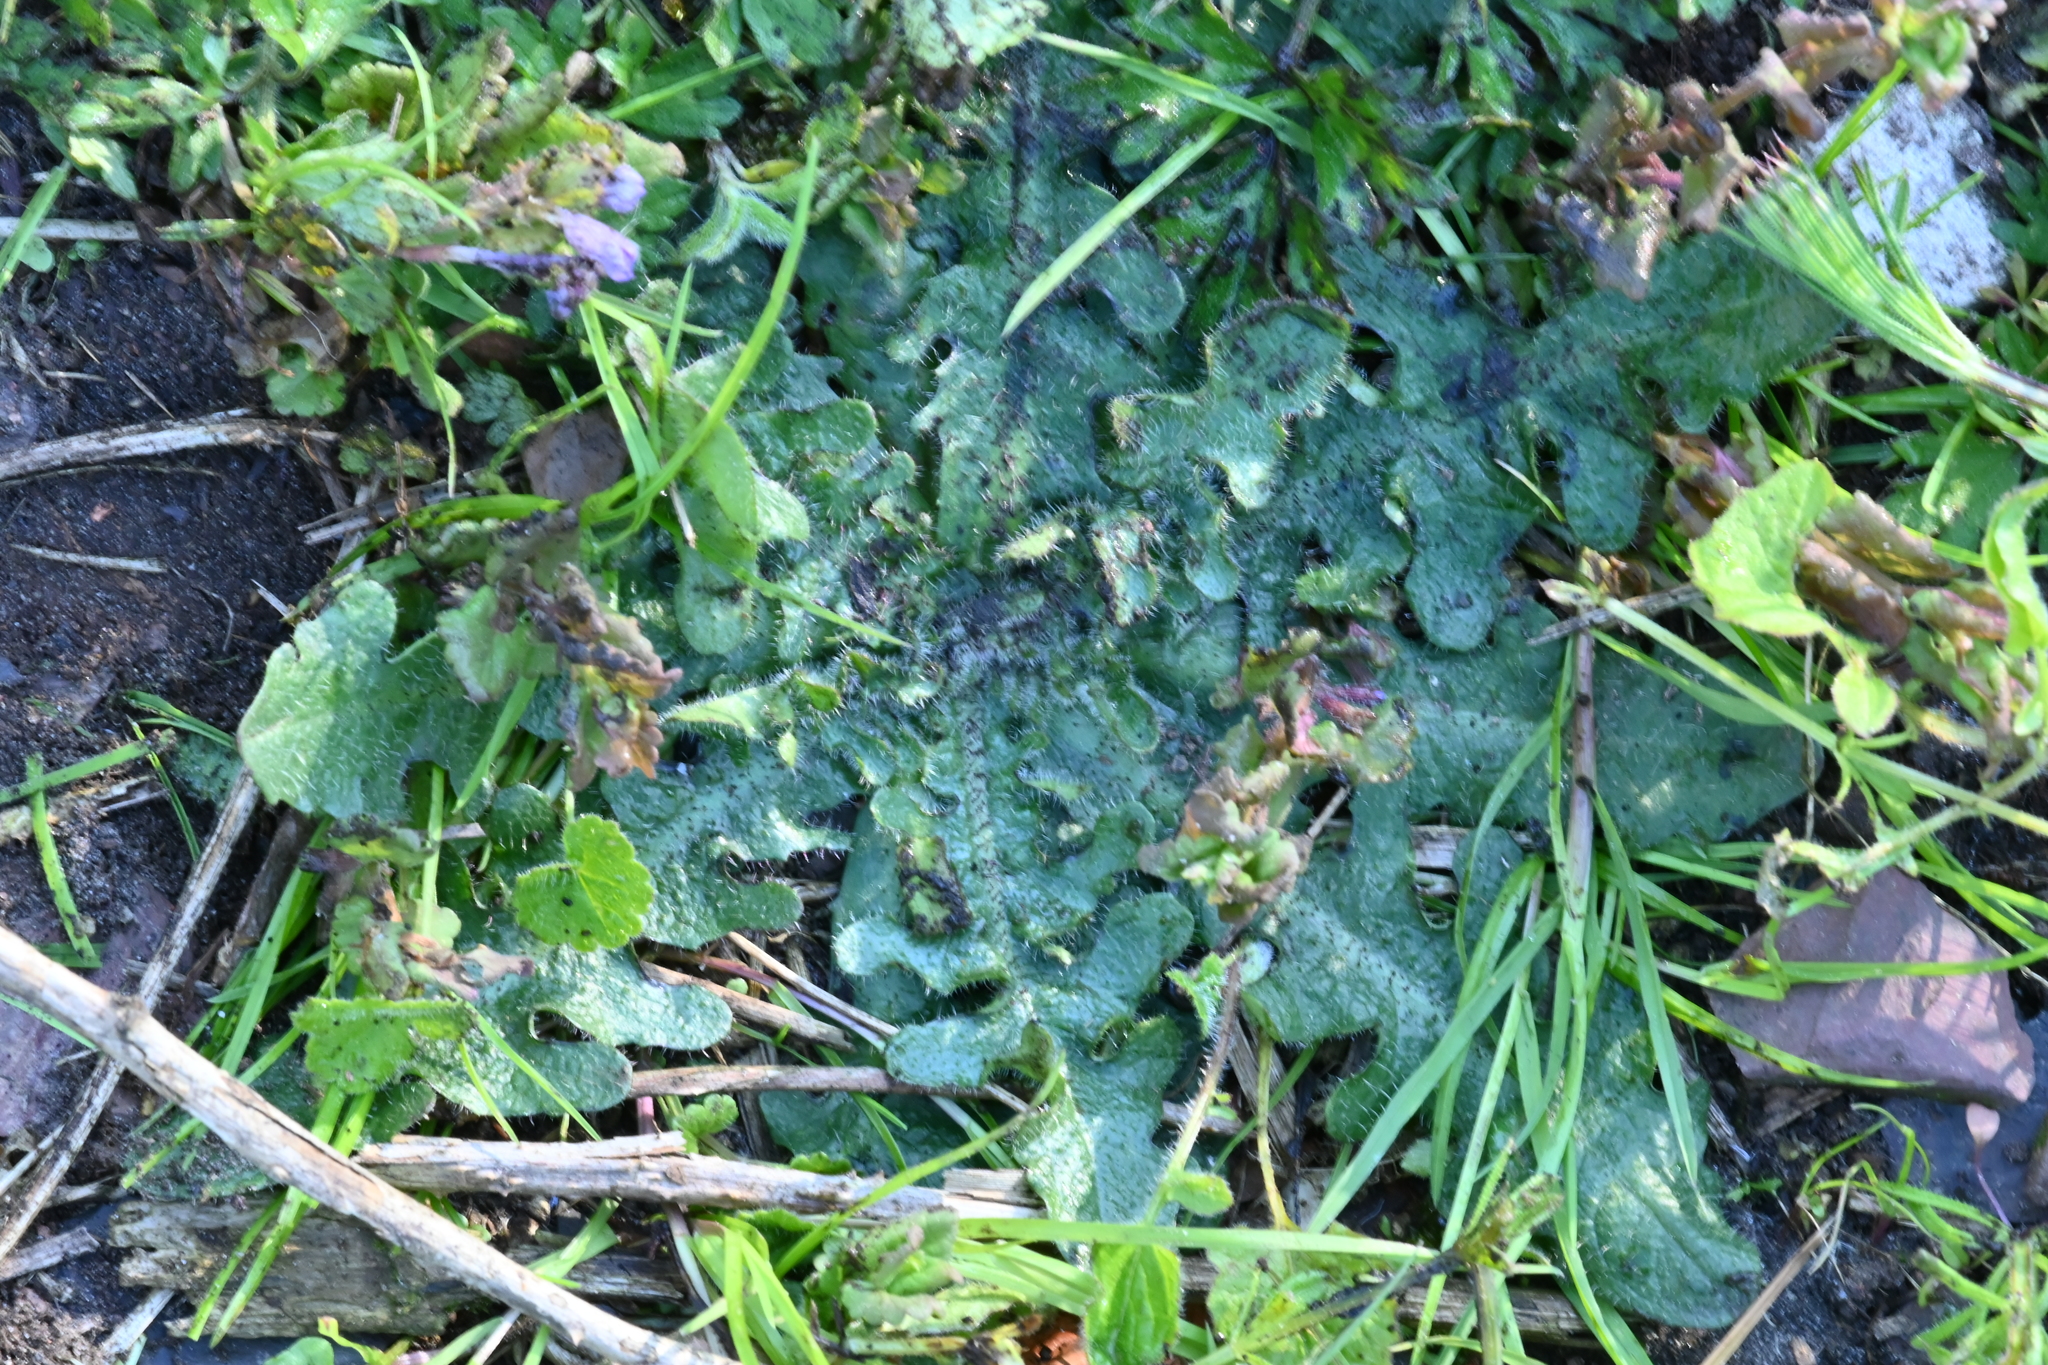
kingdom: Plantae
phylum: Tracheophyta
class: Magnoliopsida
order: Asterales
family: Asteraceae
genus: Hypochaeris
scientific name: Hypochaeris radicata
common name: Flatweed
